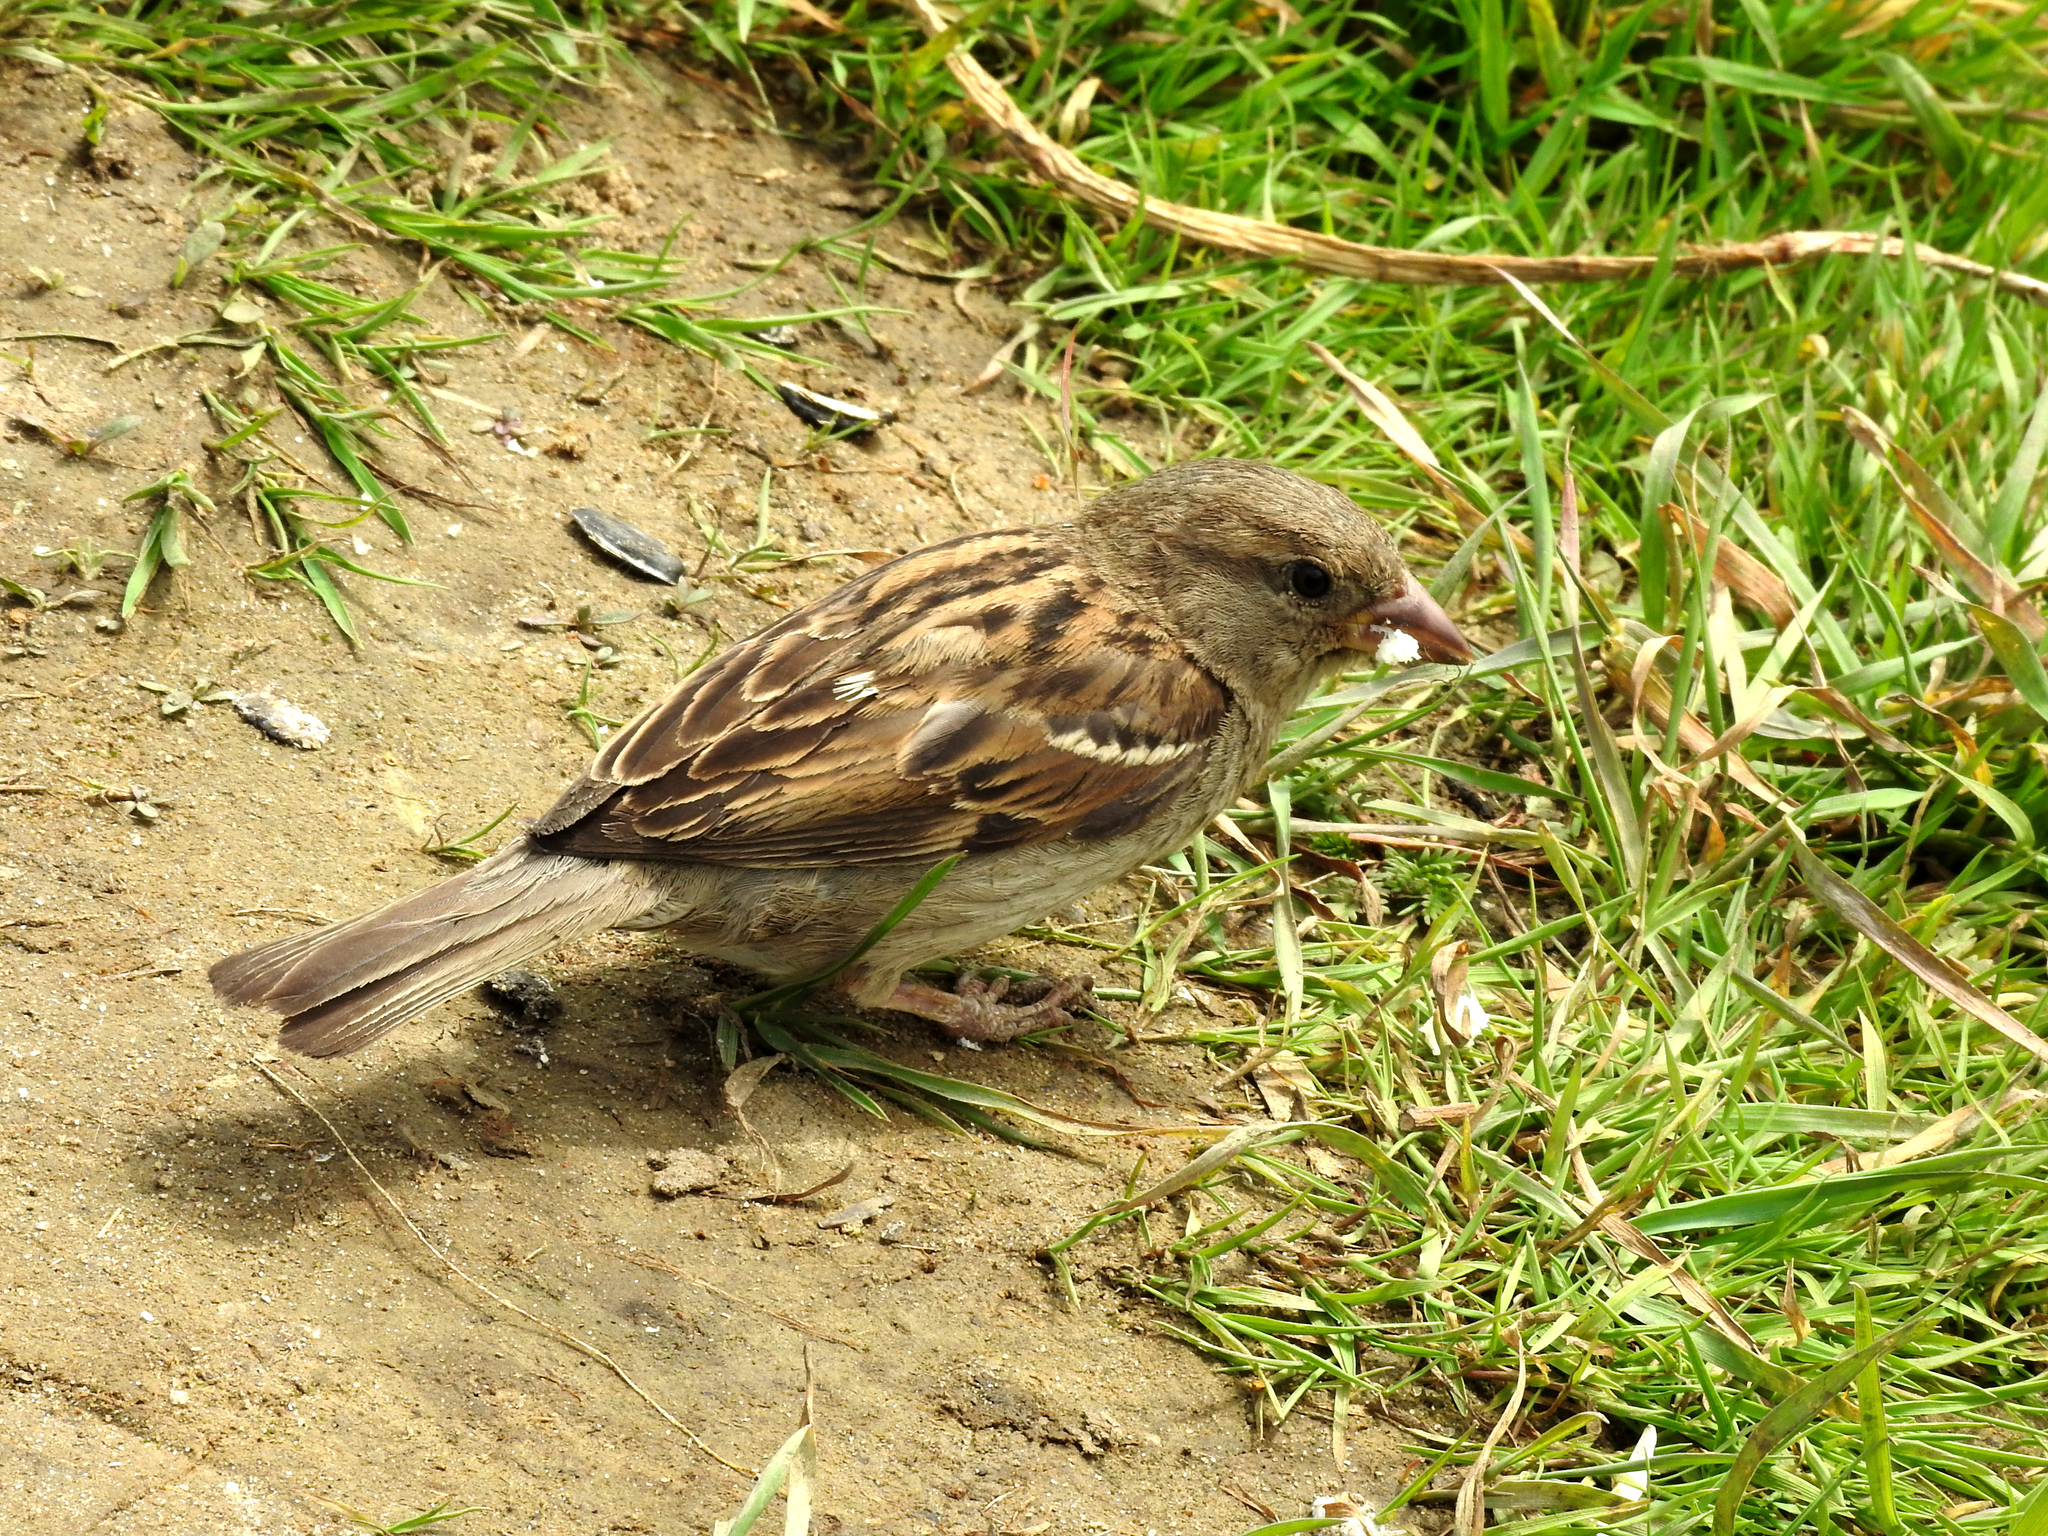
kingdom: Animalia
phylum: Chordata
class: Aves
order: Passeriformes
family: Passeridae
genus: Passer
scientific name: Passer domesticus
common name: House sparrow
